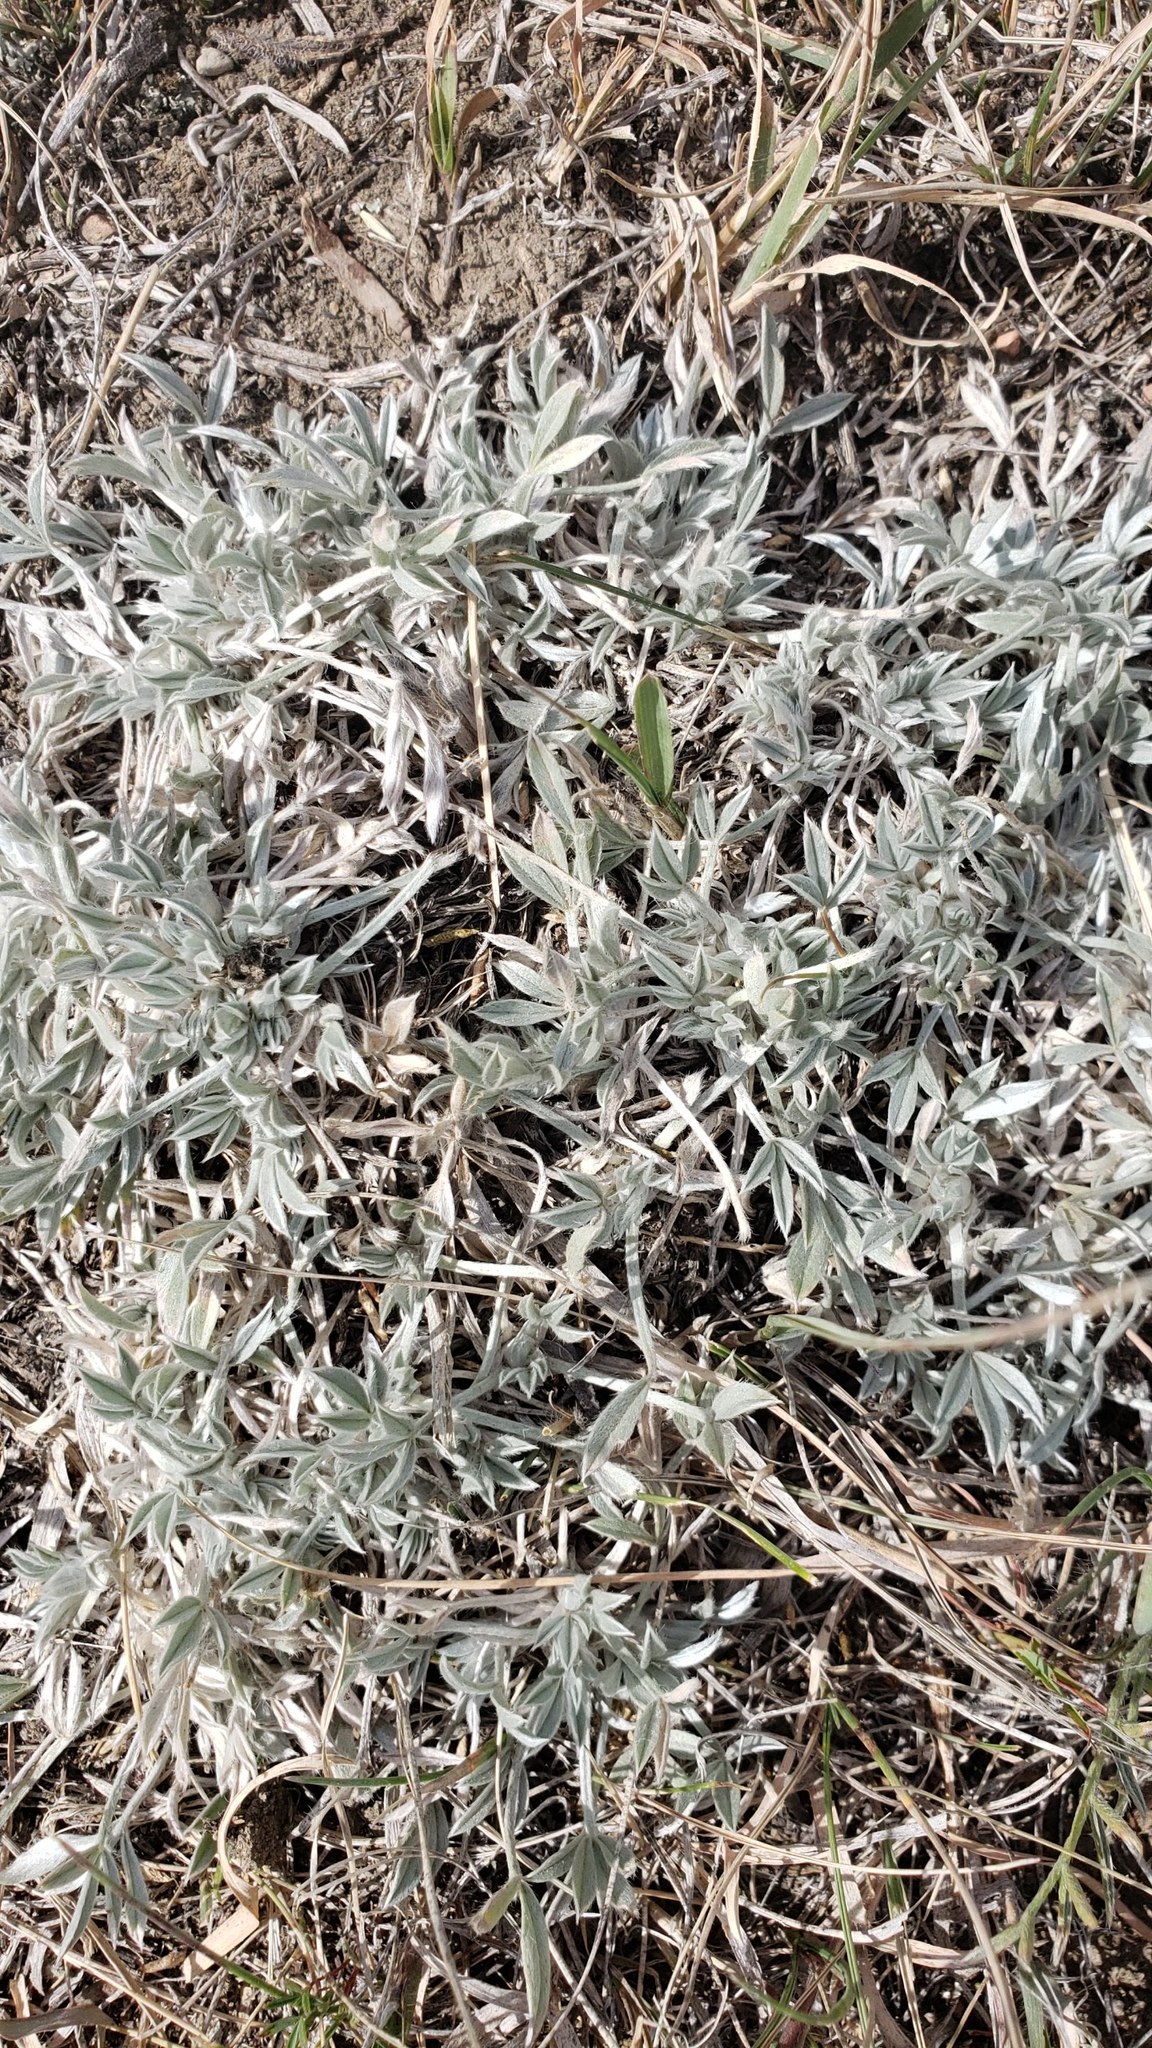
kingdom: Plantae
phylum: Tracheophyta
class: Magnoliopsida
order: Fabales
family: Fabaceae
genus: Astragalus
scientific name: Astragalus gilviflorus
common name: Cushion milk-vetch
